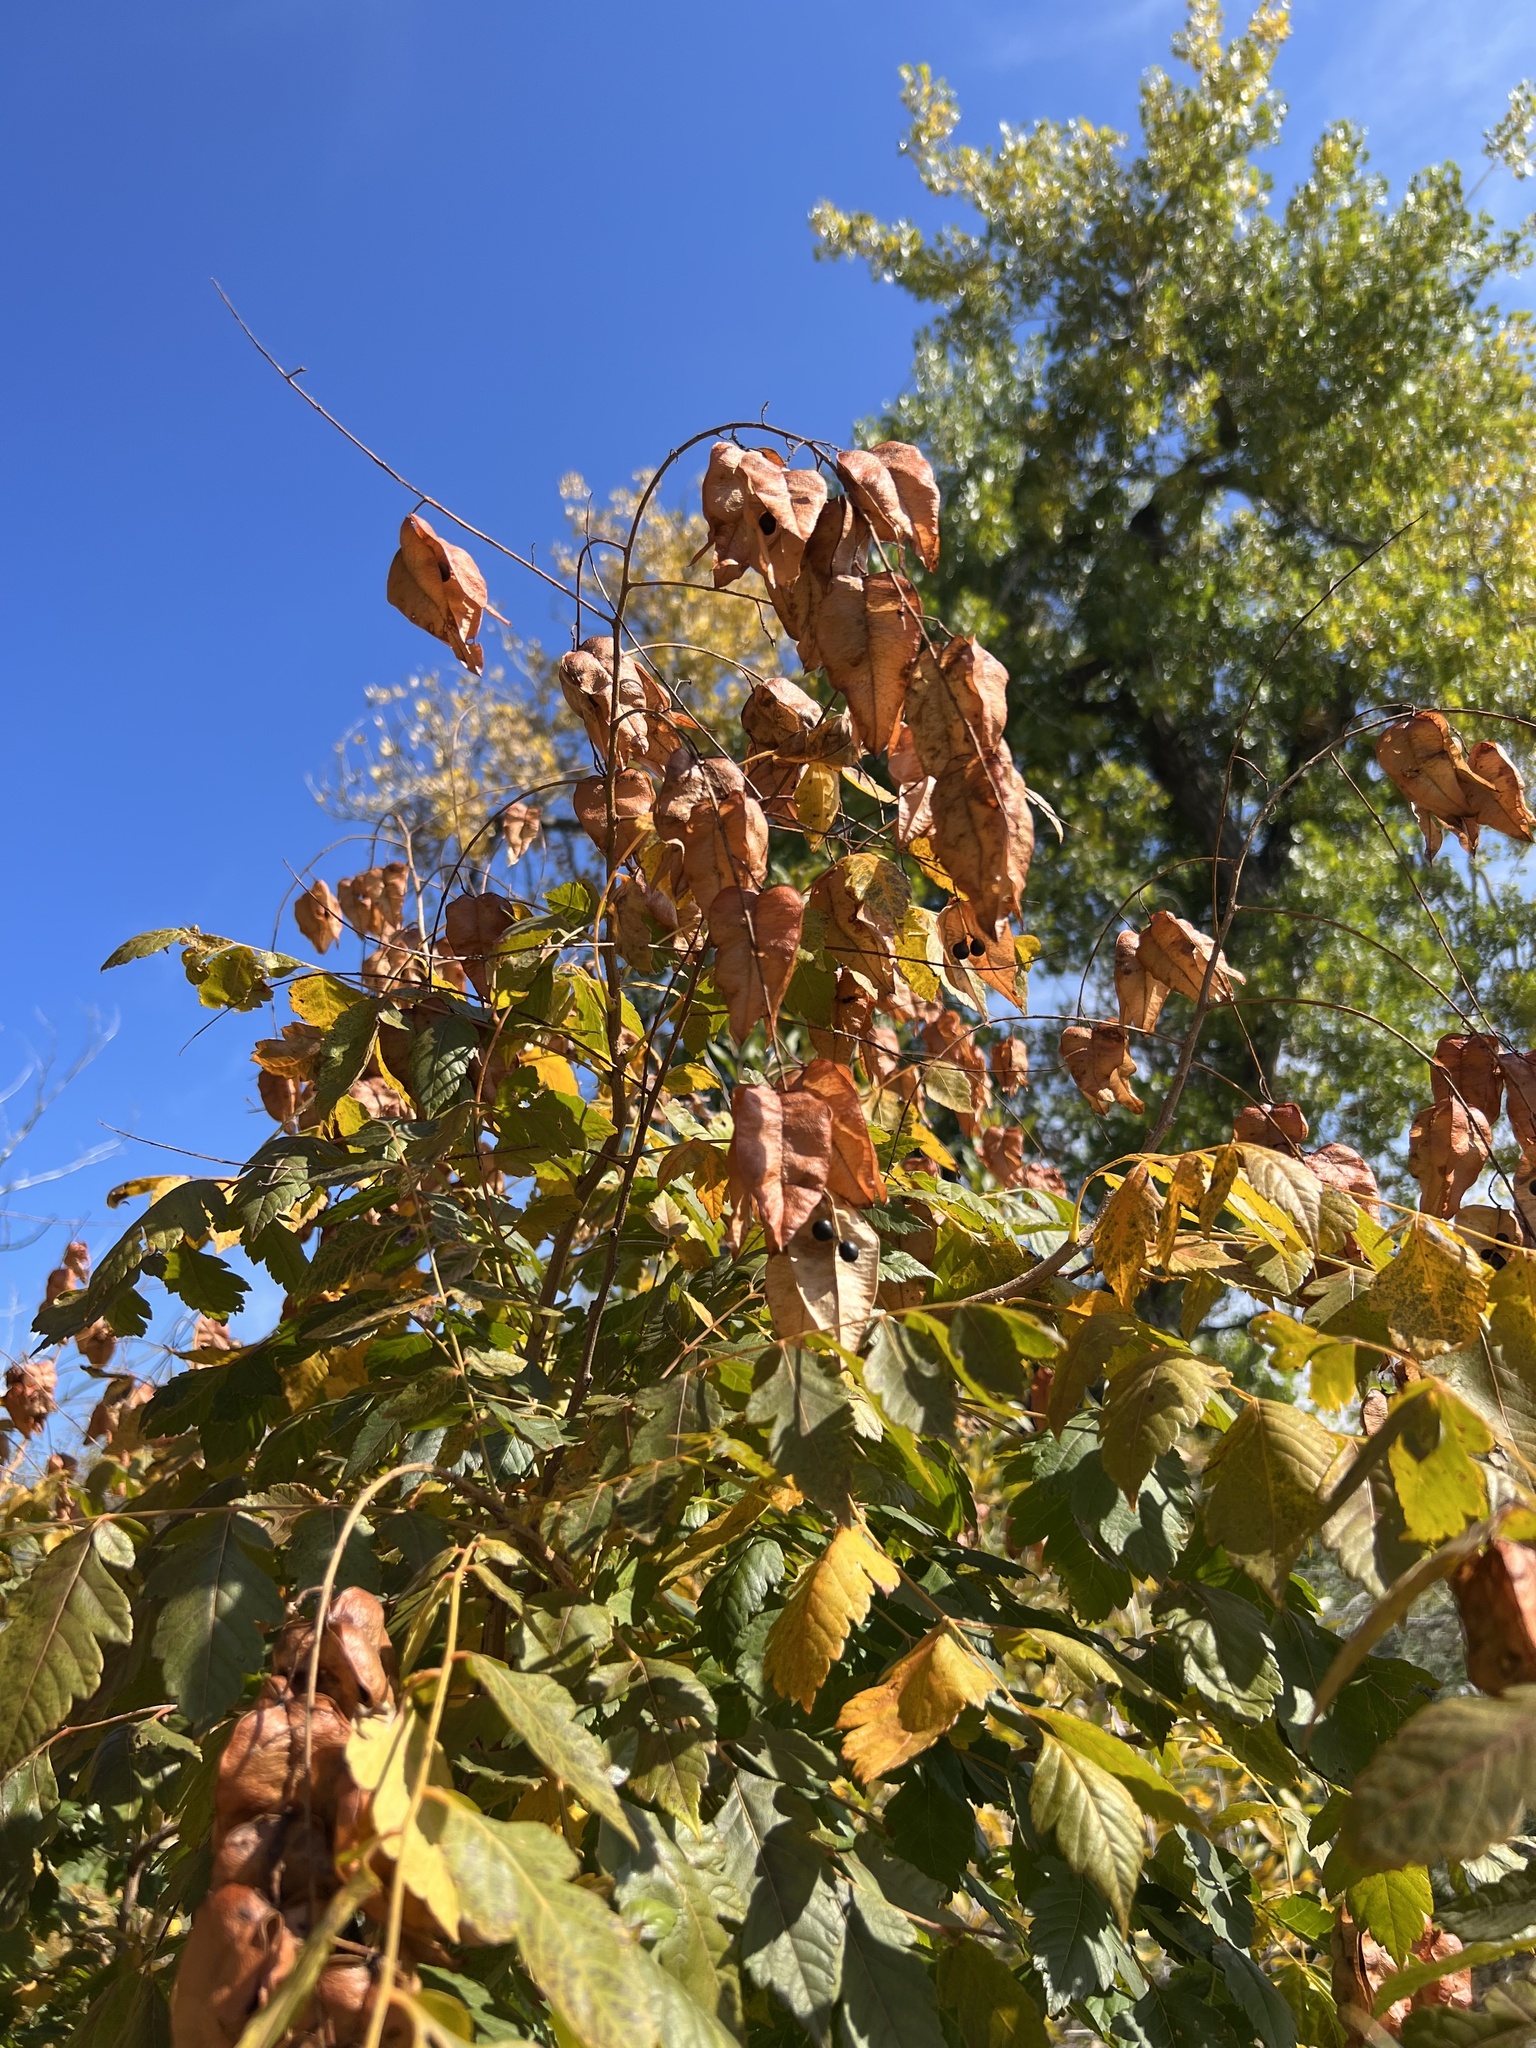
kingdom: Plantae
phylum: Tracheophyta
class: Magnoliopsida
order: Sapindales
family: Sapindaceae
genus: Koelreuteria
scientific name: Koelreuteria paniculata
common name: Pride-of-india
